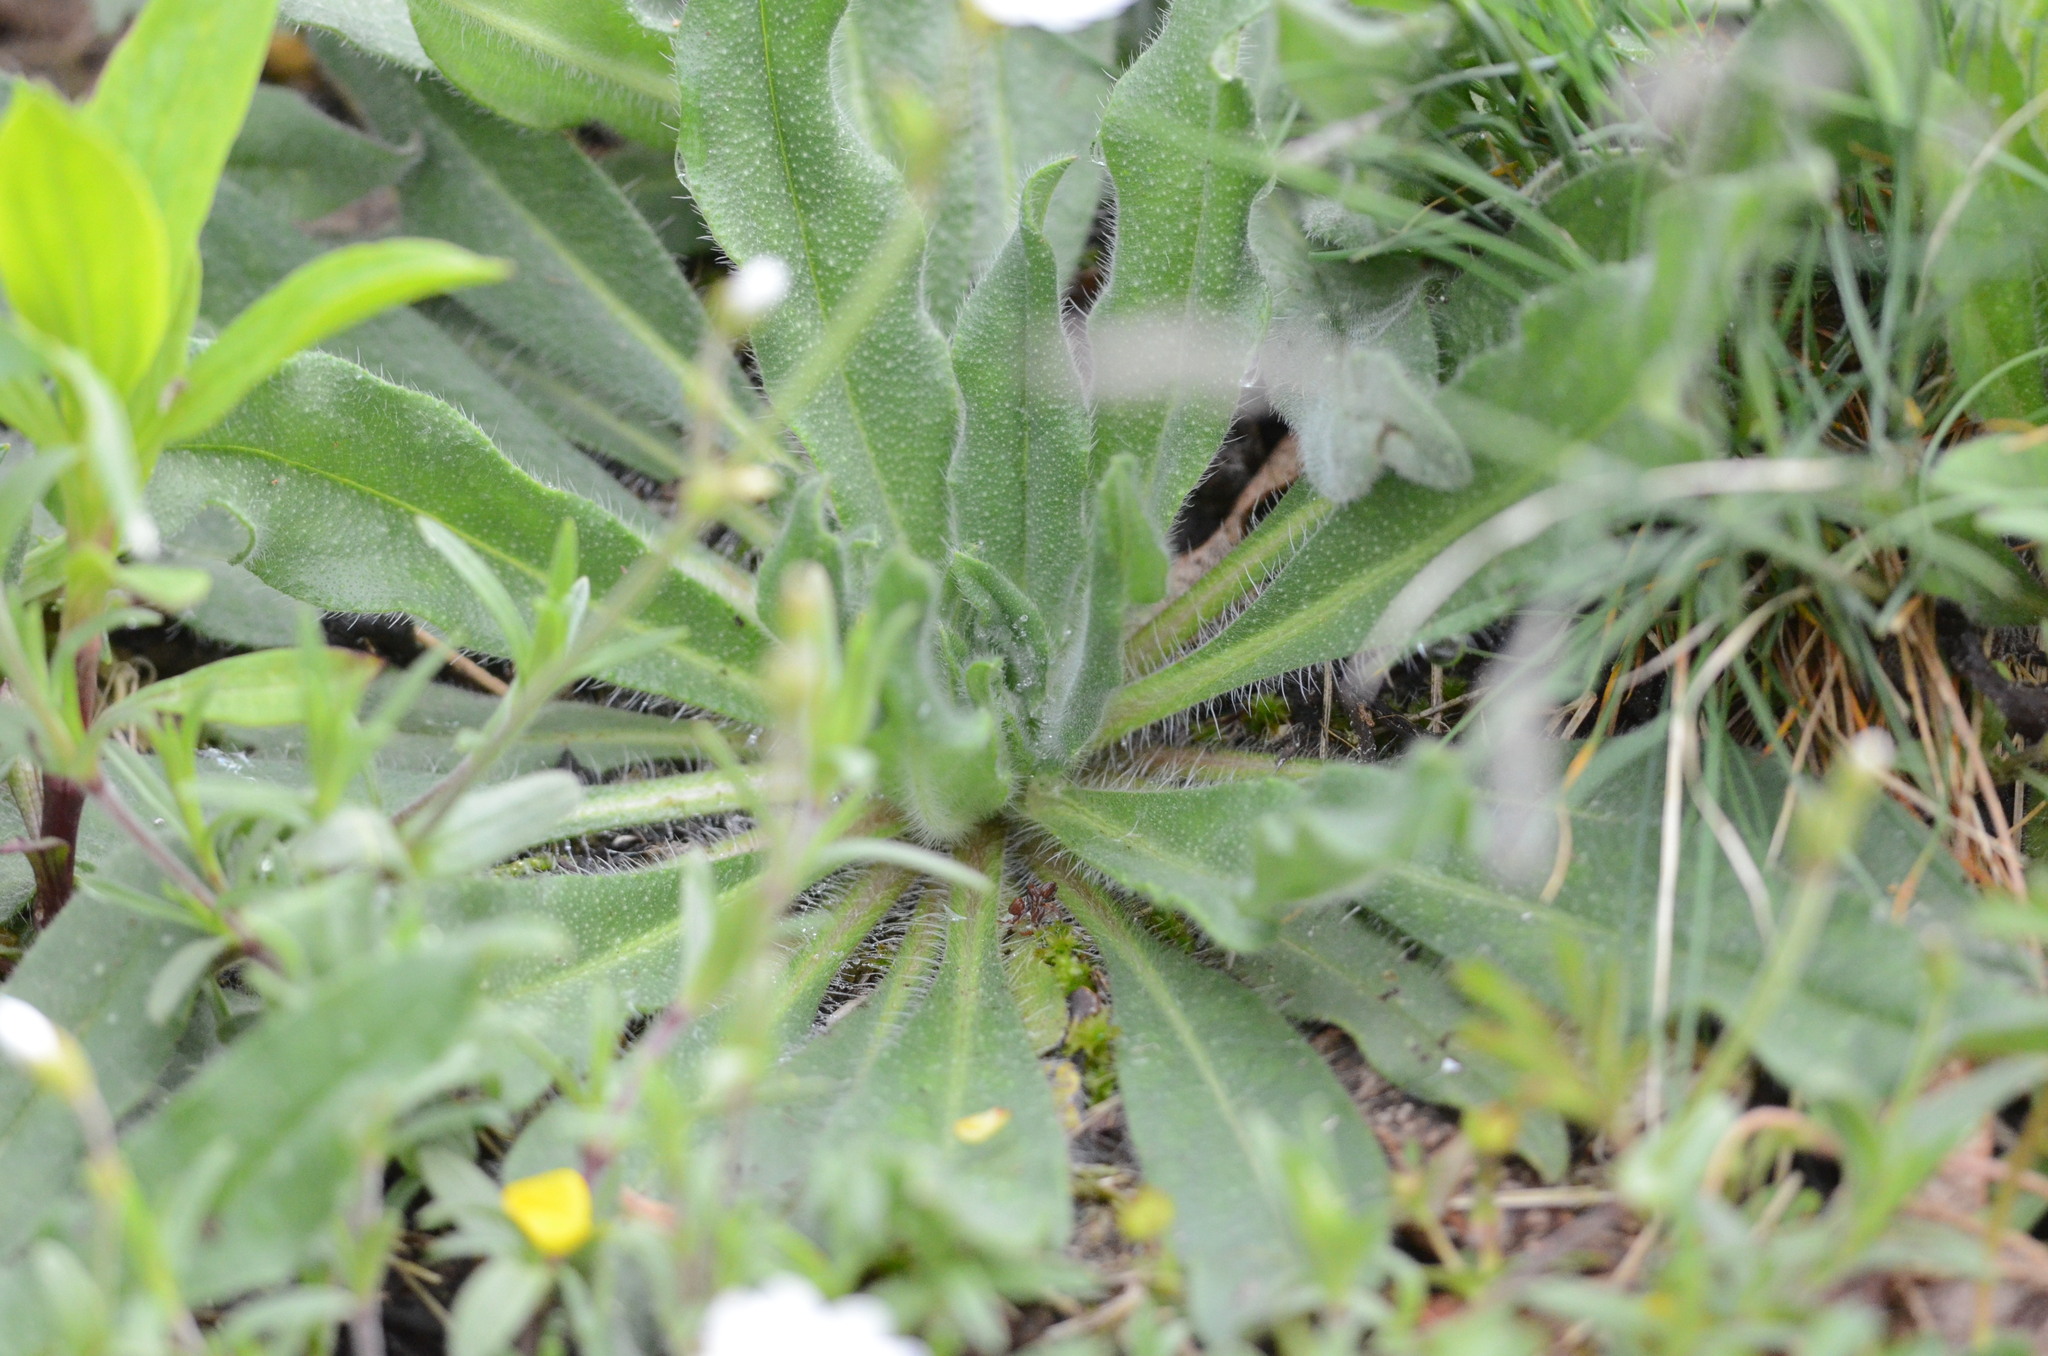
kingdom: Plantae
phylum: Tracheophyta
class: Magnoliopsida
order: Boraginales
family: Boraginaceae
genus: Echium
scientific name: Echium vulgare
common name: Common viper's bugloss
